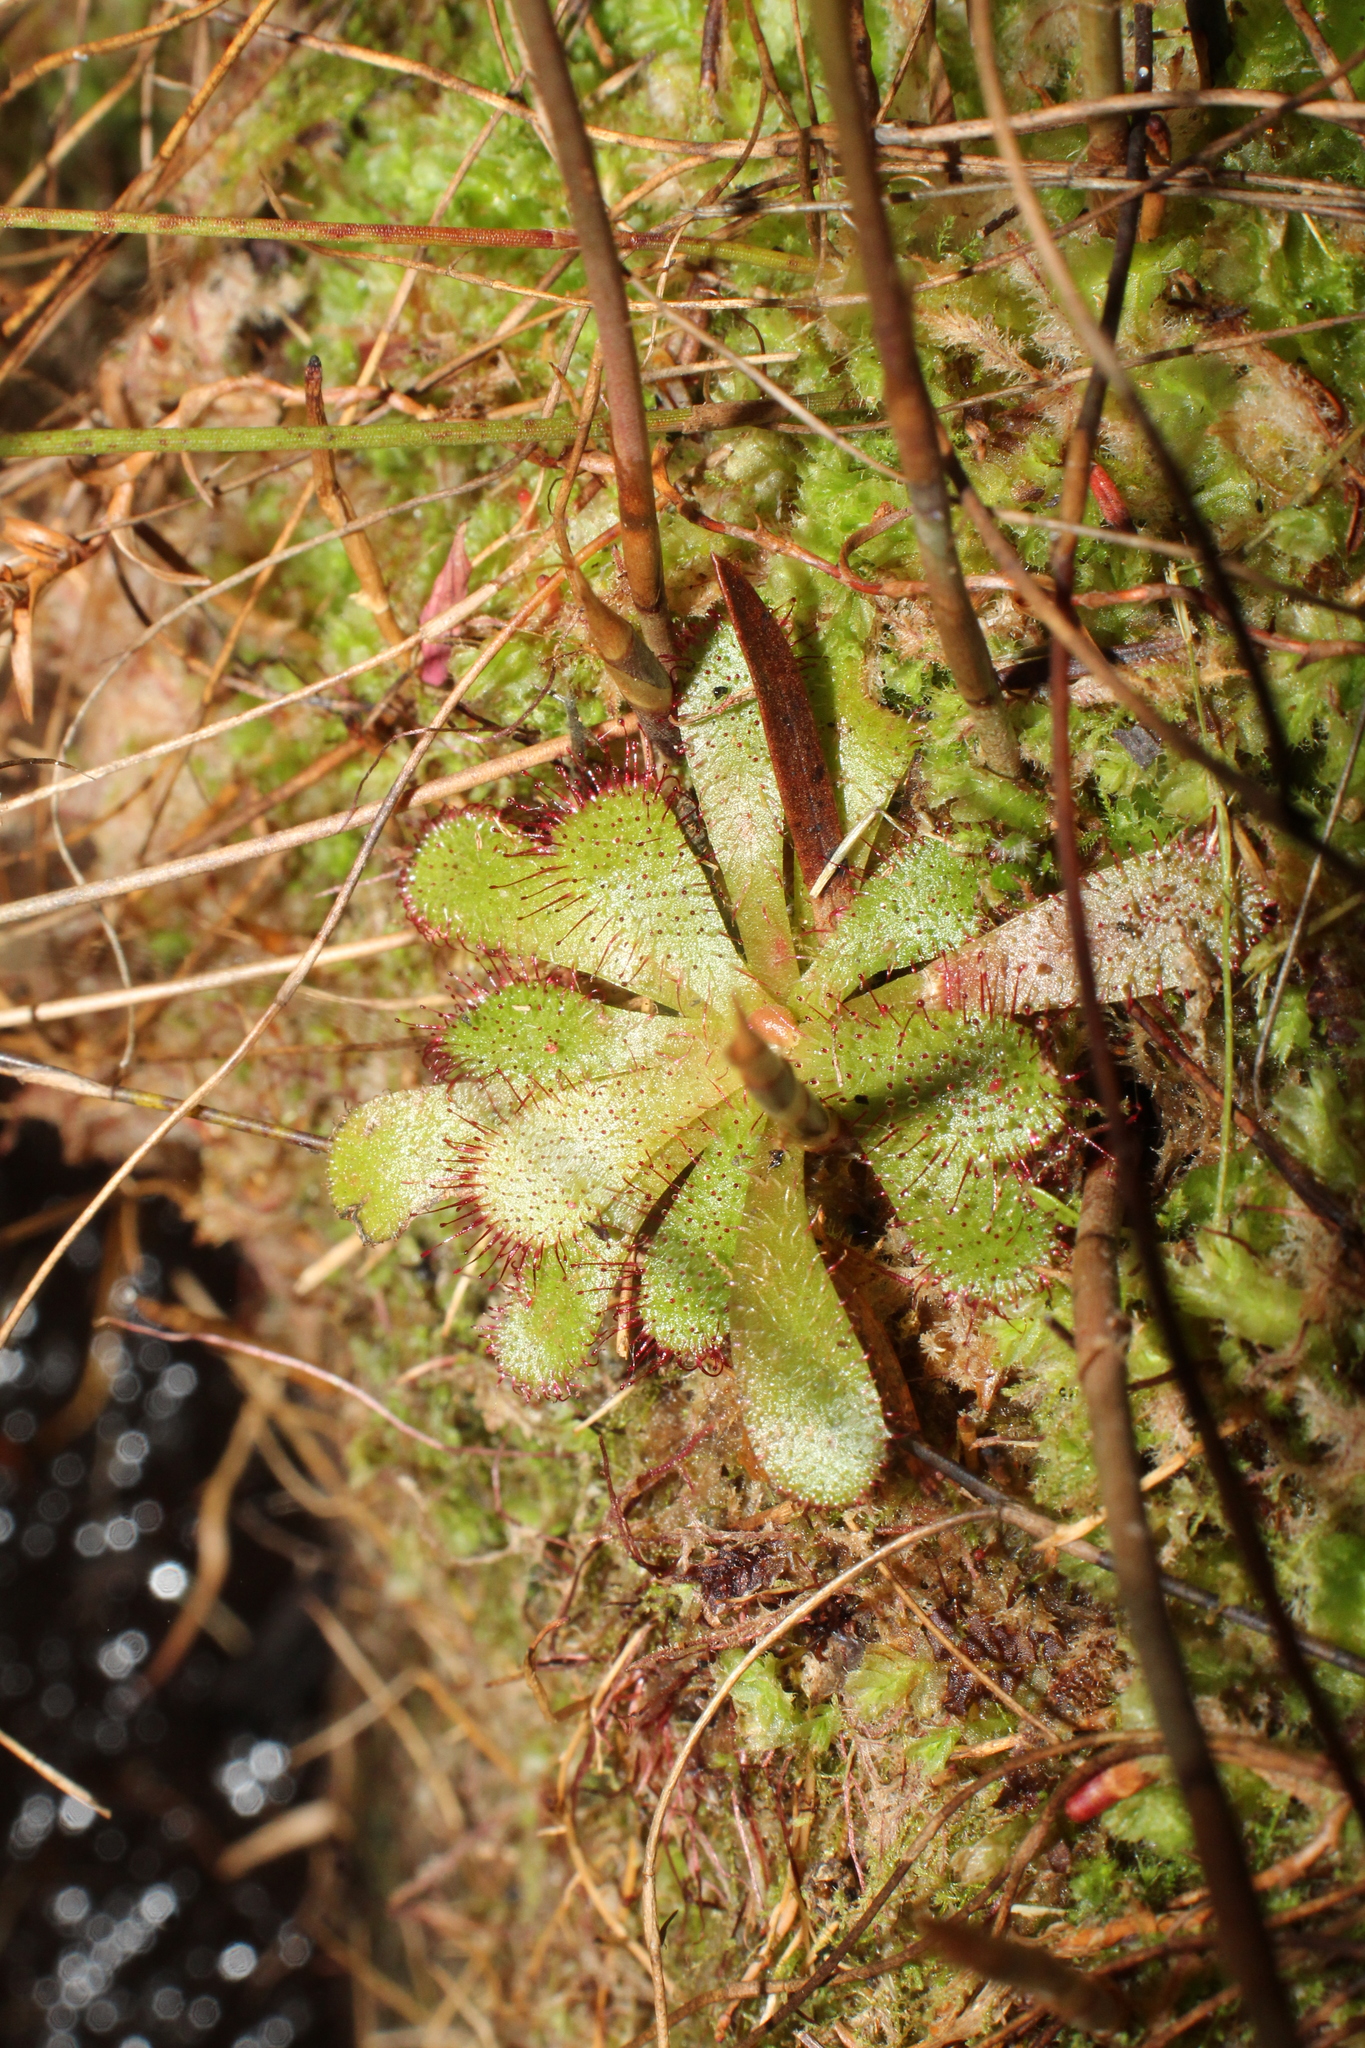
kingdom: Plantae
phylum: Tracheophyta
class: Magnoliopsida
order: Caryophyllales
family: Droseraceae
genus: Drosera
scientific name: Drosera hamiltonii
